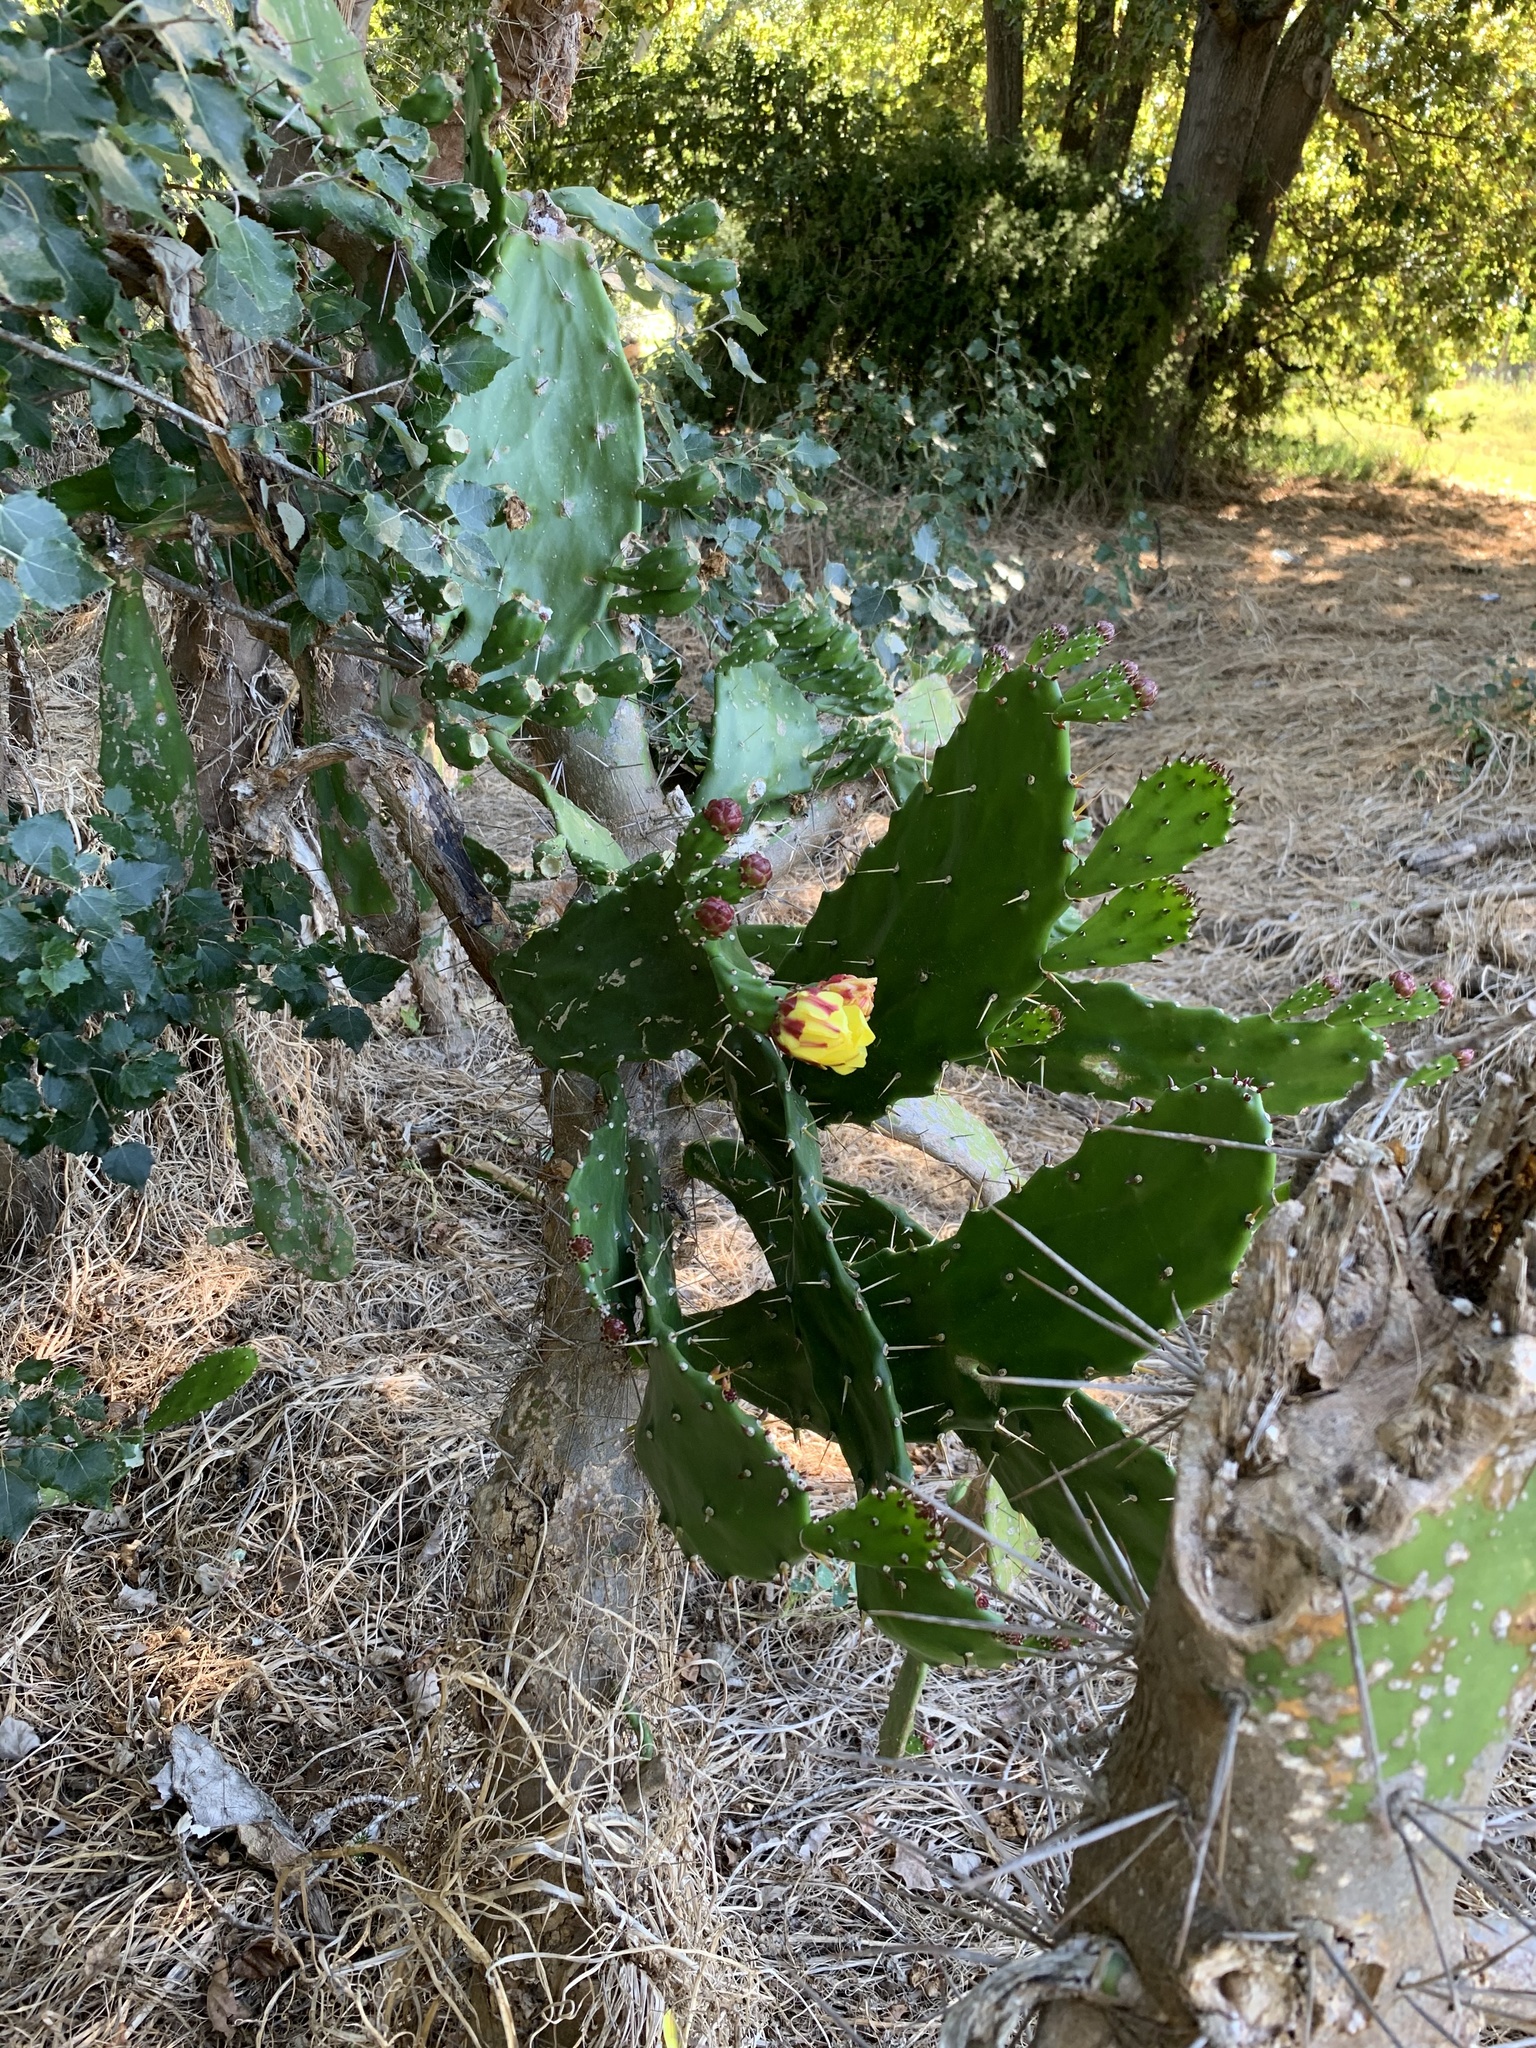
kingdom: Plantae
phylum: Tracheophyta
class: Magnoliopsida
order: Caryophyllales
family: Cactaceae
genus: Opuntia
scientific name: Opuntia monacantha
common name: Common pricklypear
